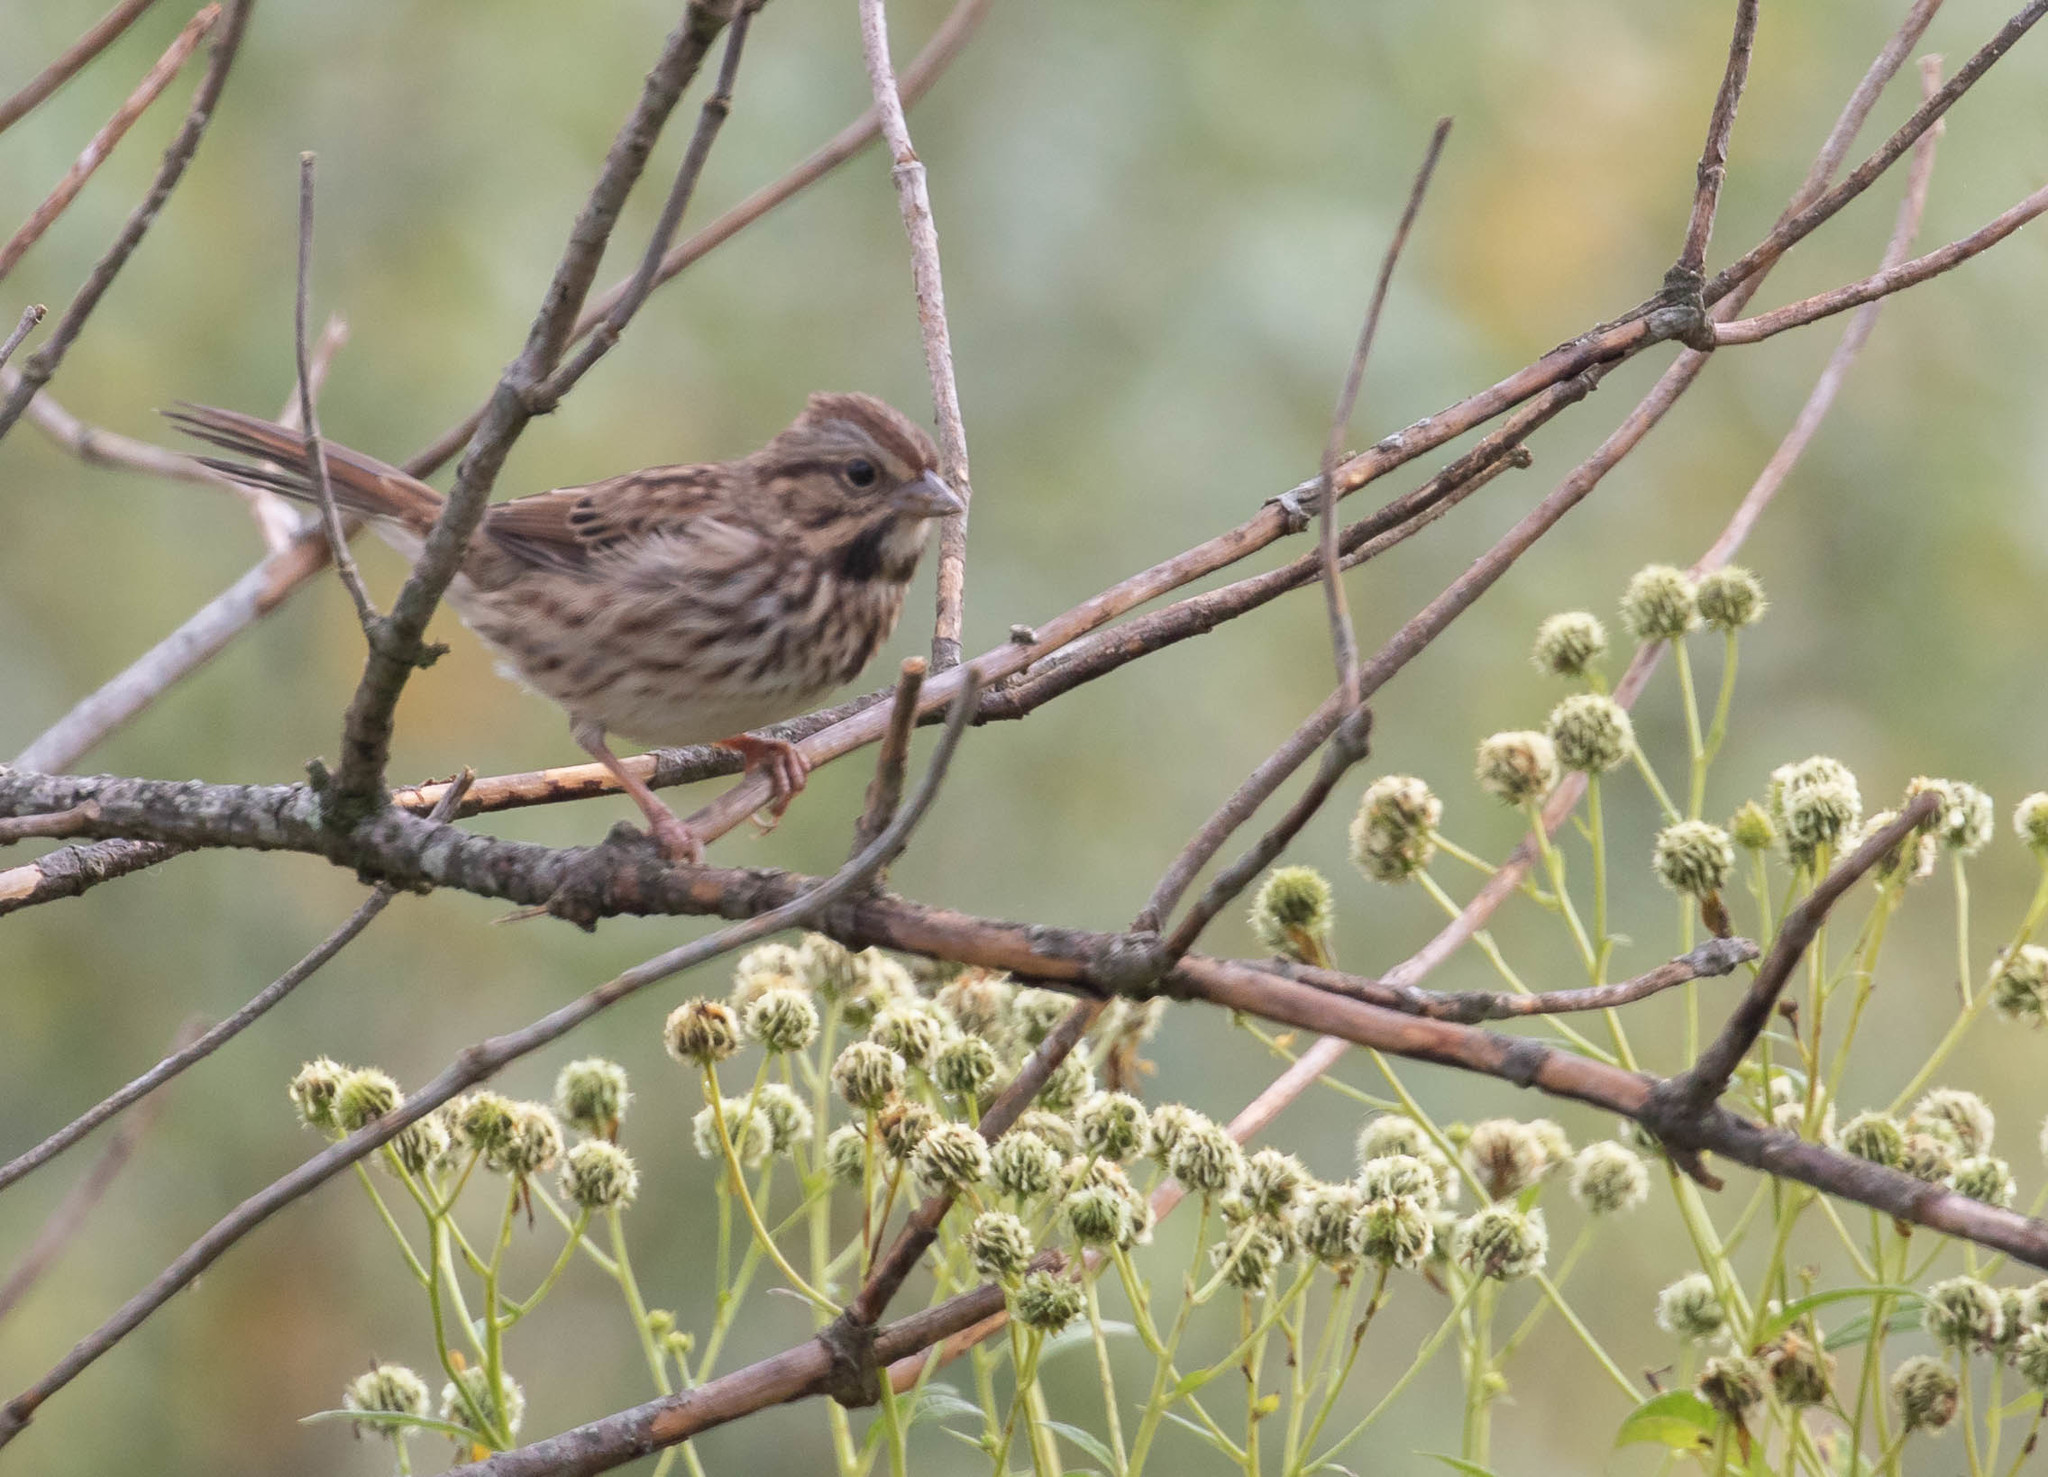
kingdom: Animalia
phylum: Chordata
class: Aves
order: Passeriformes
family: Passerellidae
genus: Melospiza
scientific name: Melospiza melodia
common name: Song sparrow
